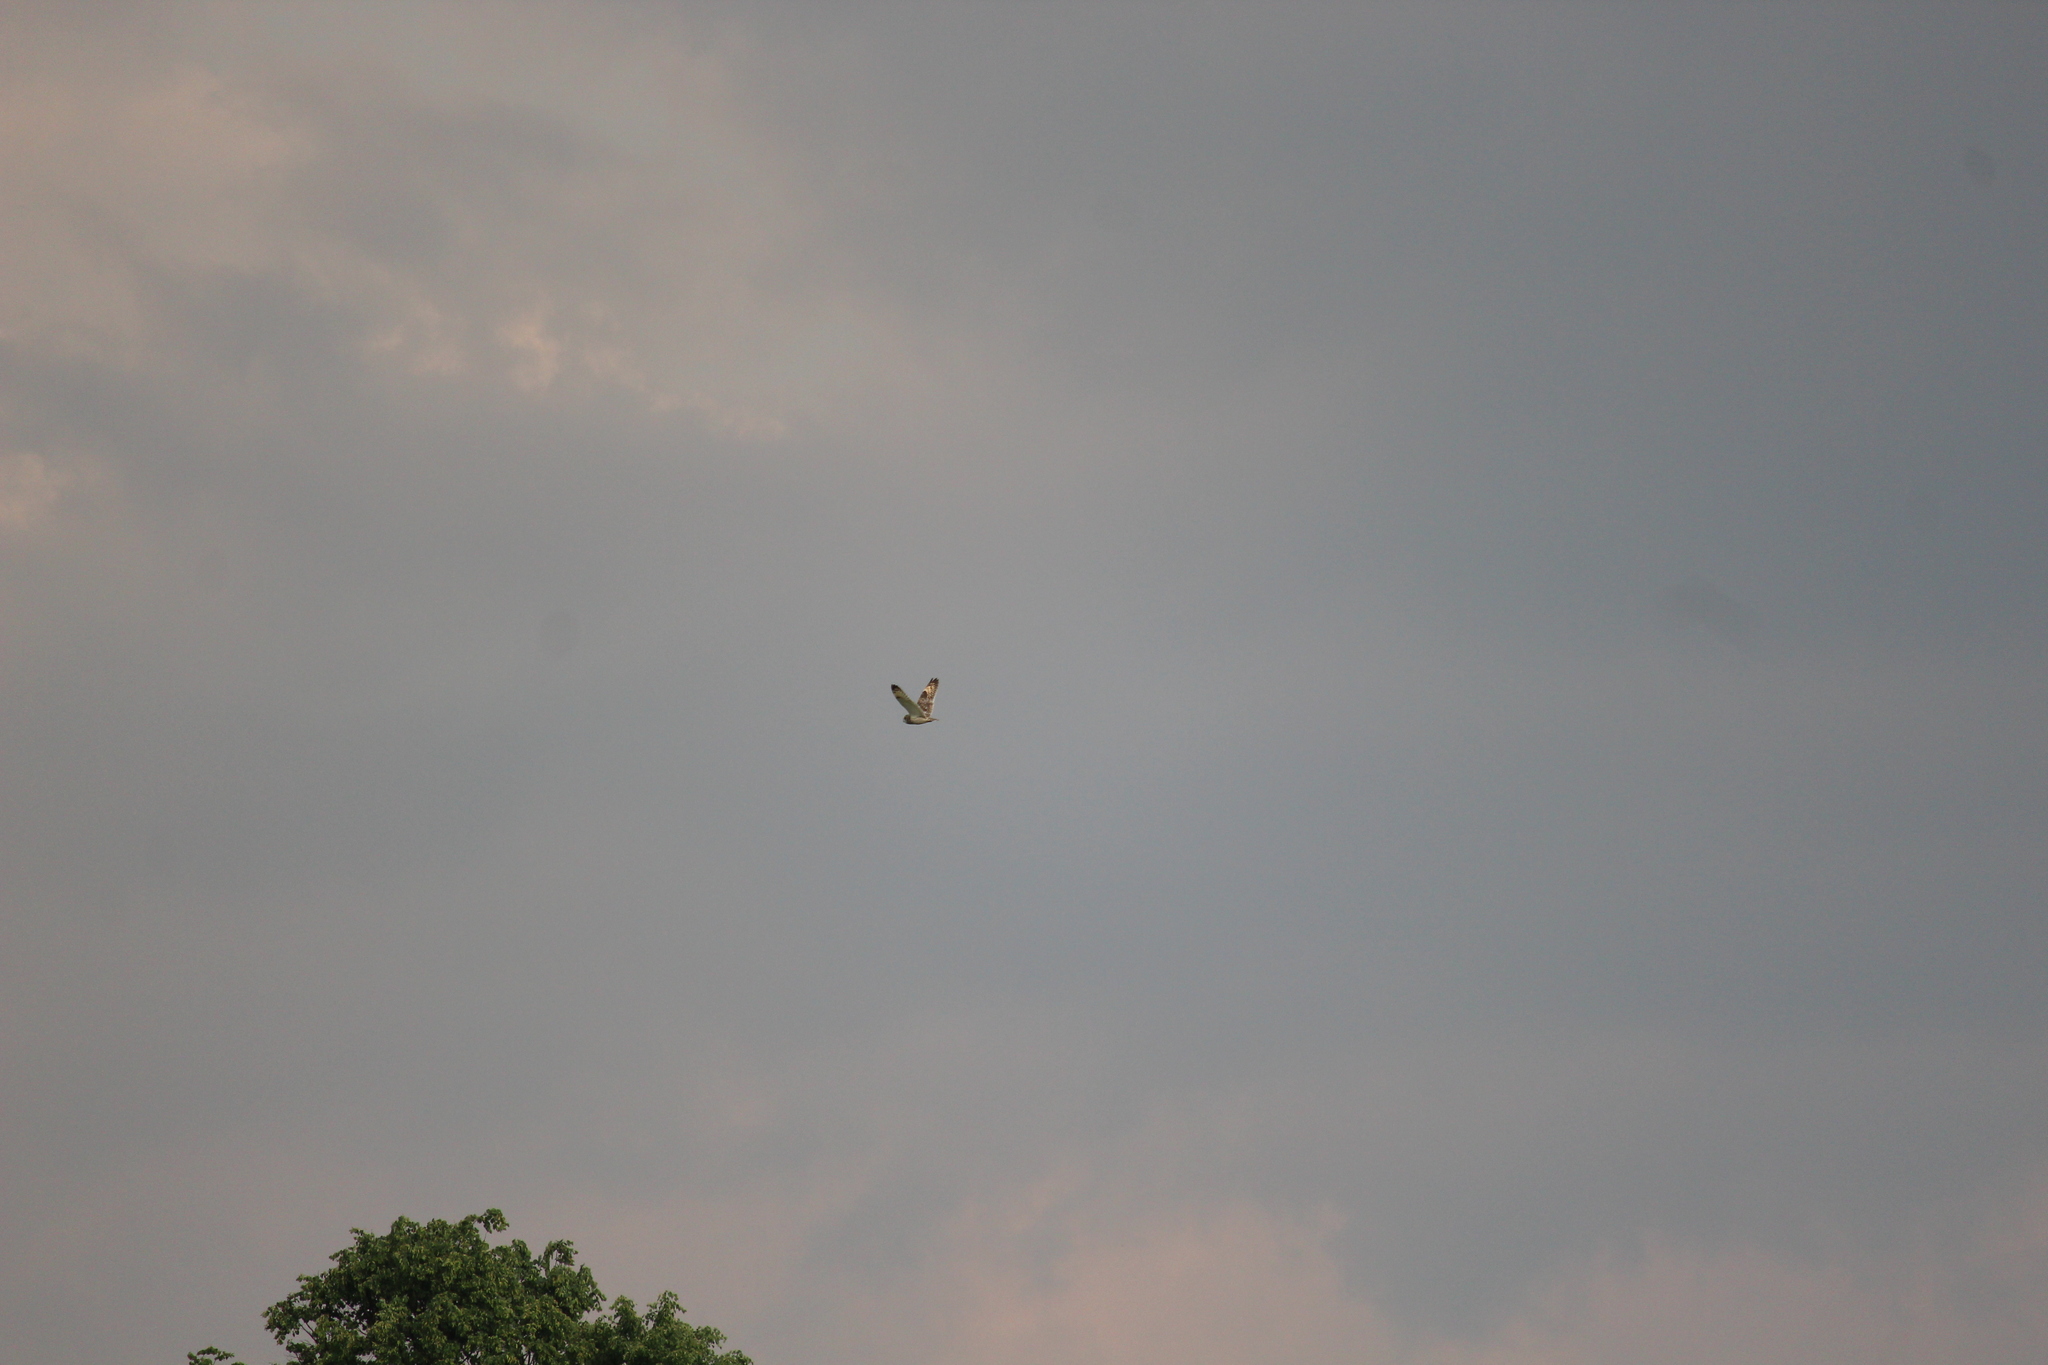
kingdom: Animalia
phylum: Chordata
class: Aves
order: Strigiformes
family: Strigidae
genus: Asio
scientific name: Asio flammeus
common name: Short-eared owl
